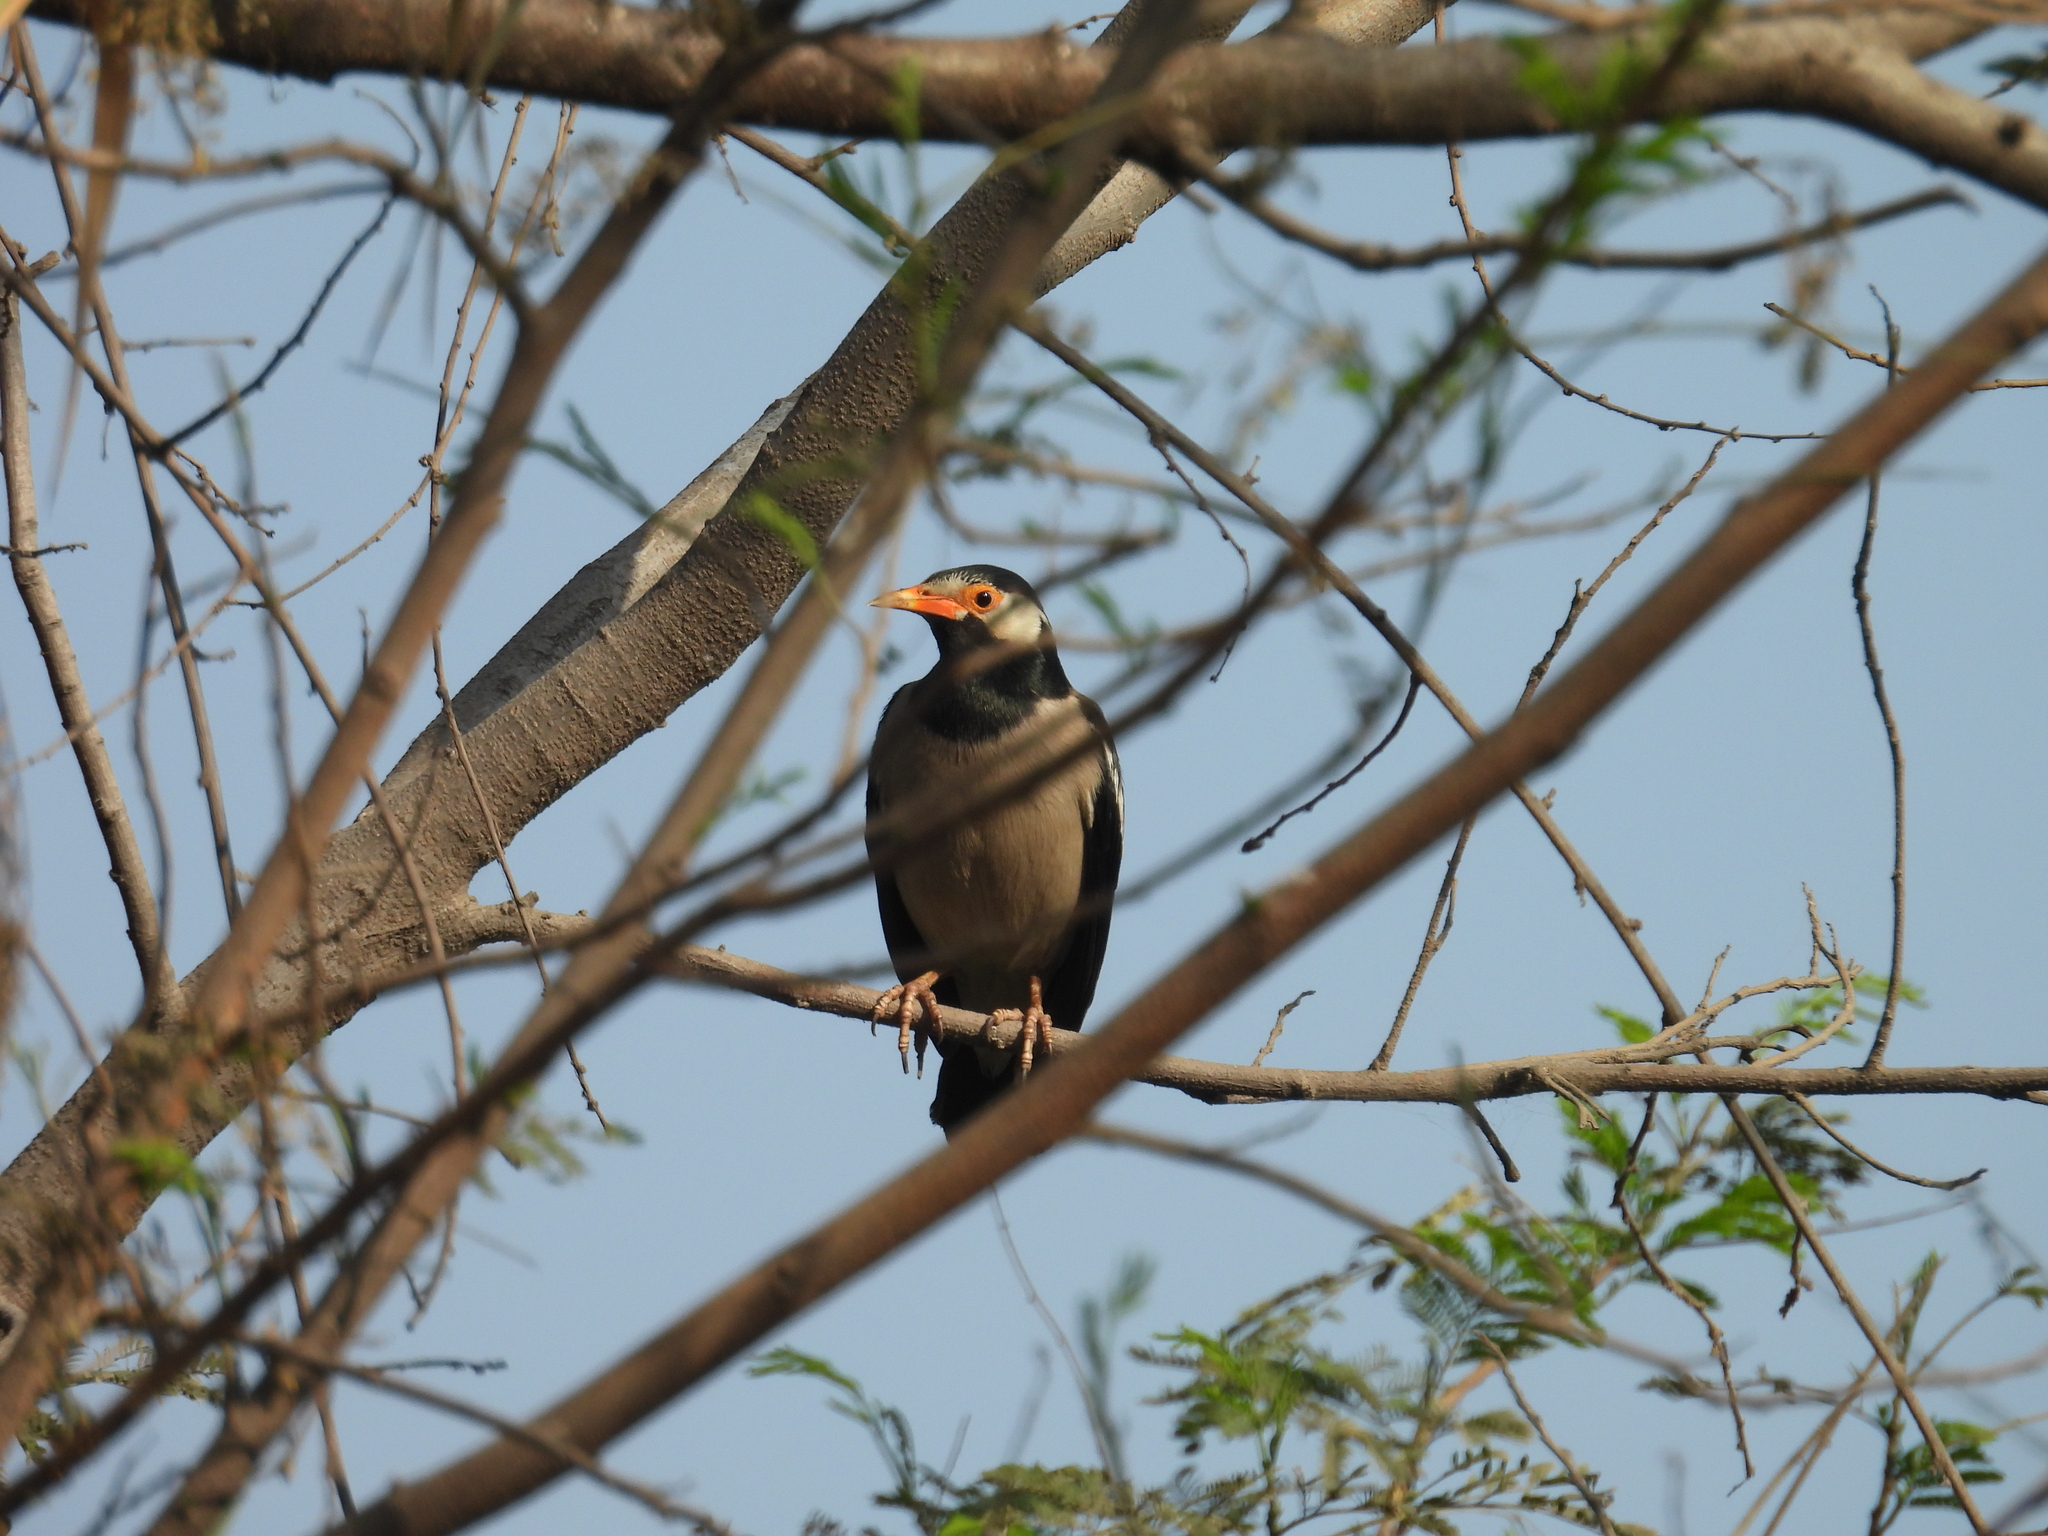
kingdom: Animalia
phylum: Chordata
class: Aves
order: Passeriformes
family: Sturnidae
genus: Gracupica
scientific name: Gracupica contra
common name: Pied myna
